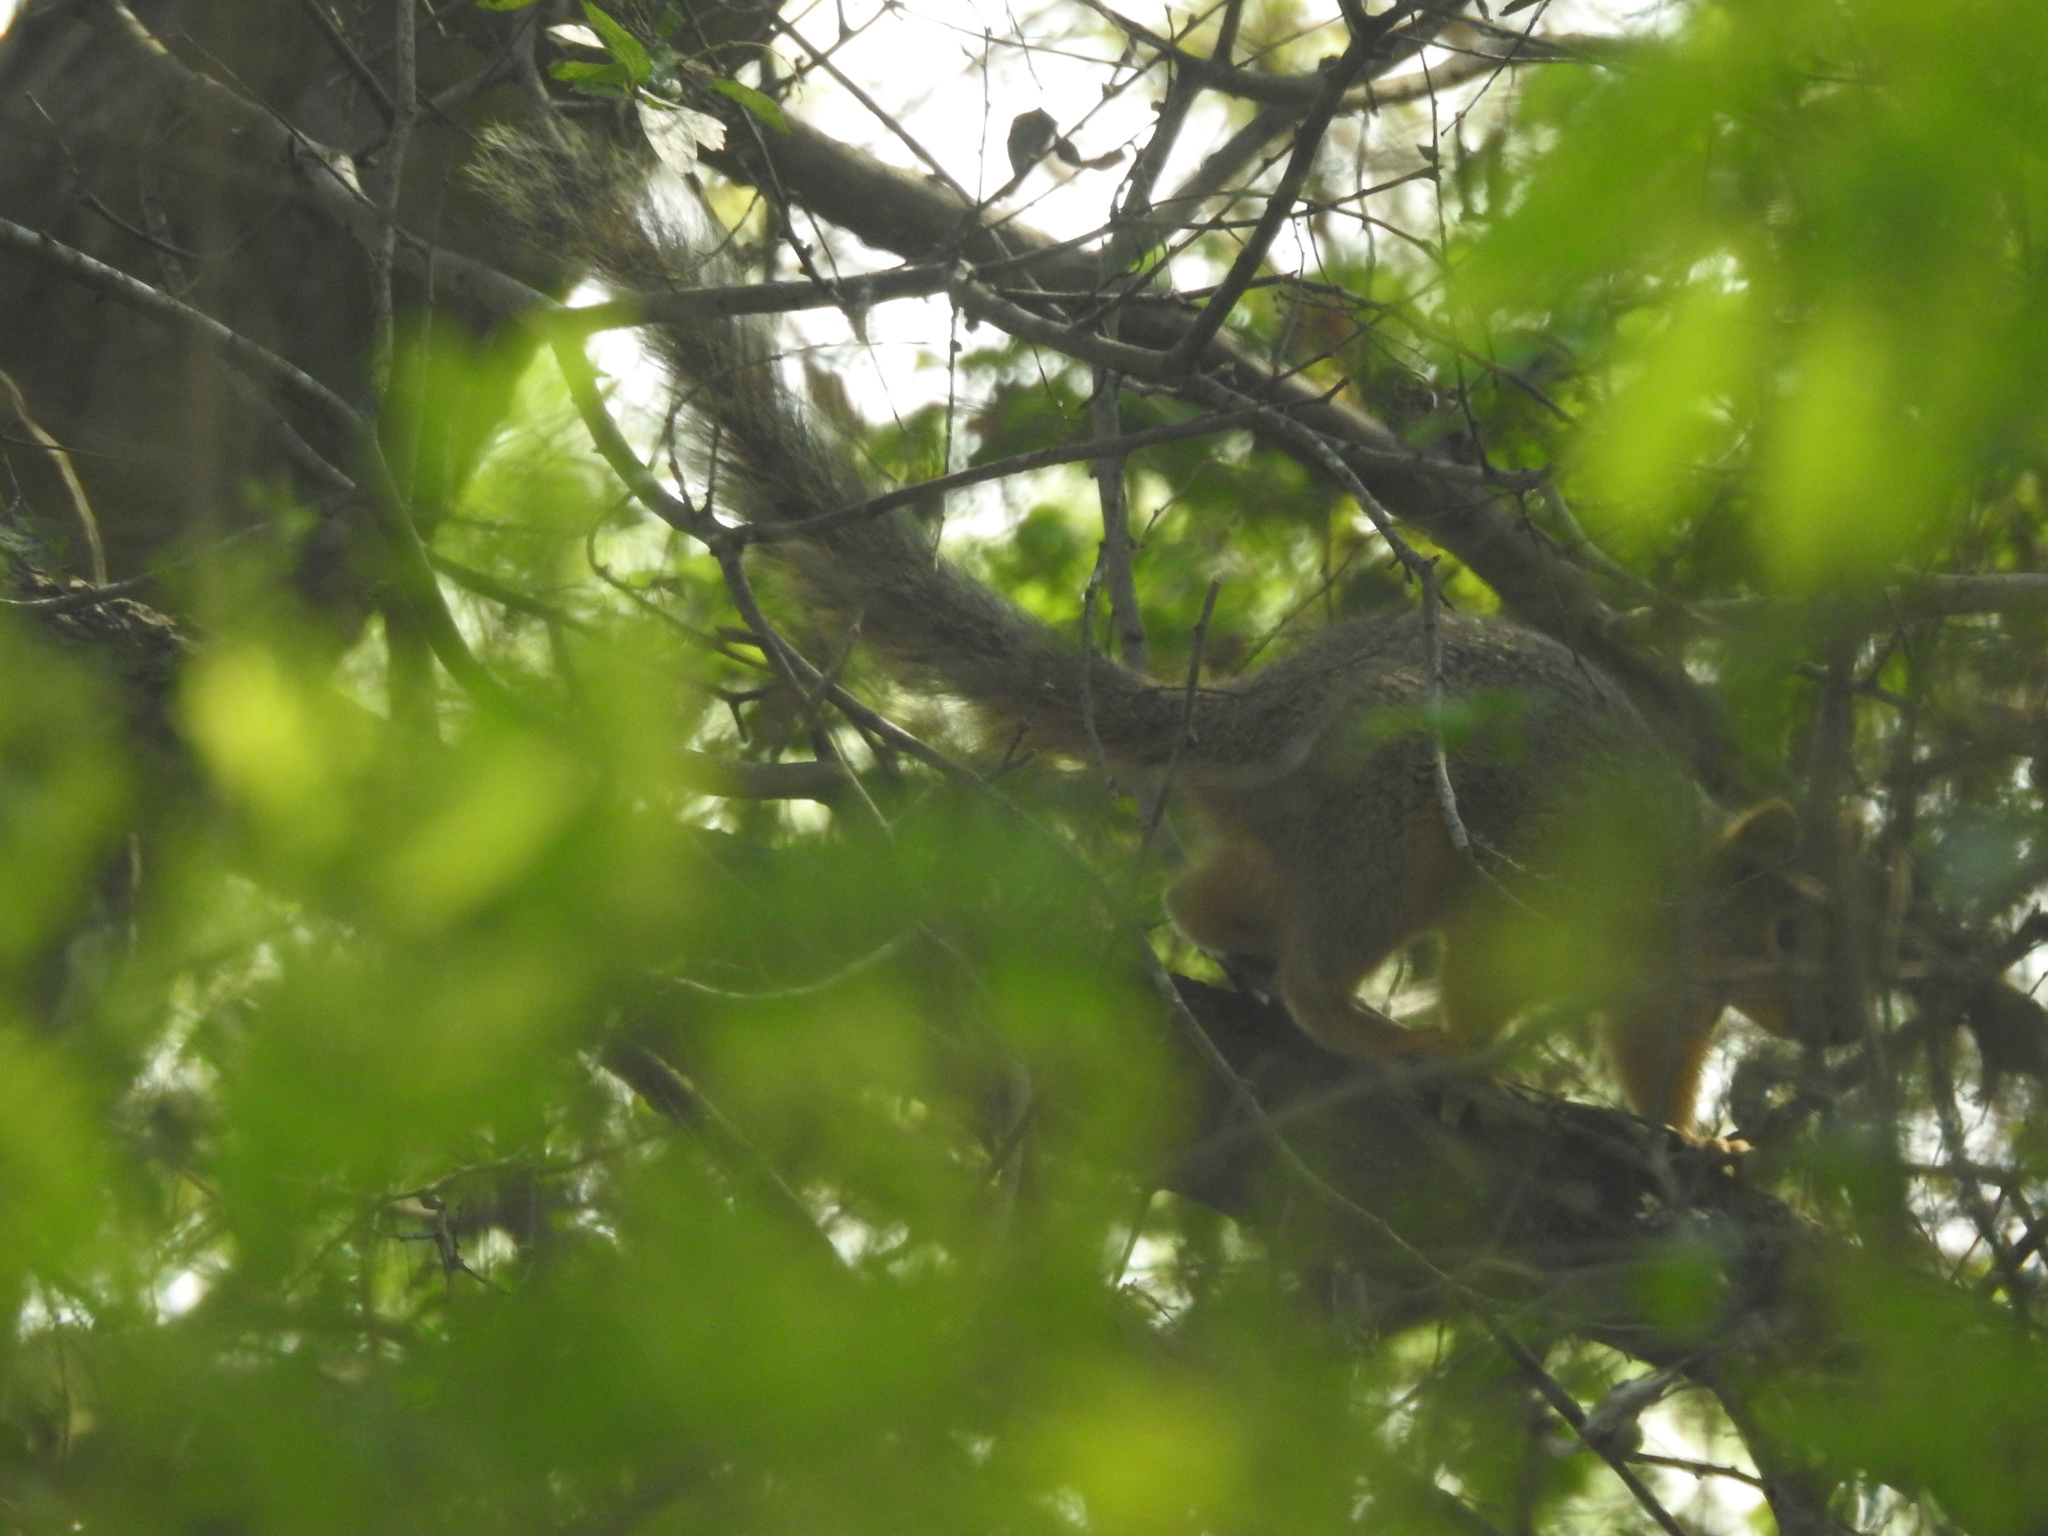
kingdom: Animalia
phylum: Chordata
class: Mammalia
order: Rodentia
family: Sciuridae
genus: Sciurus
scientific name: Sciurus niger
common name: Fox squirrel
